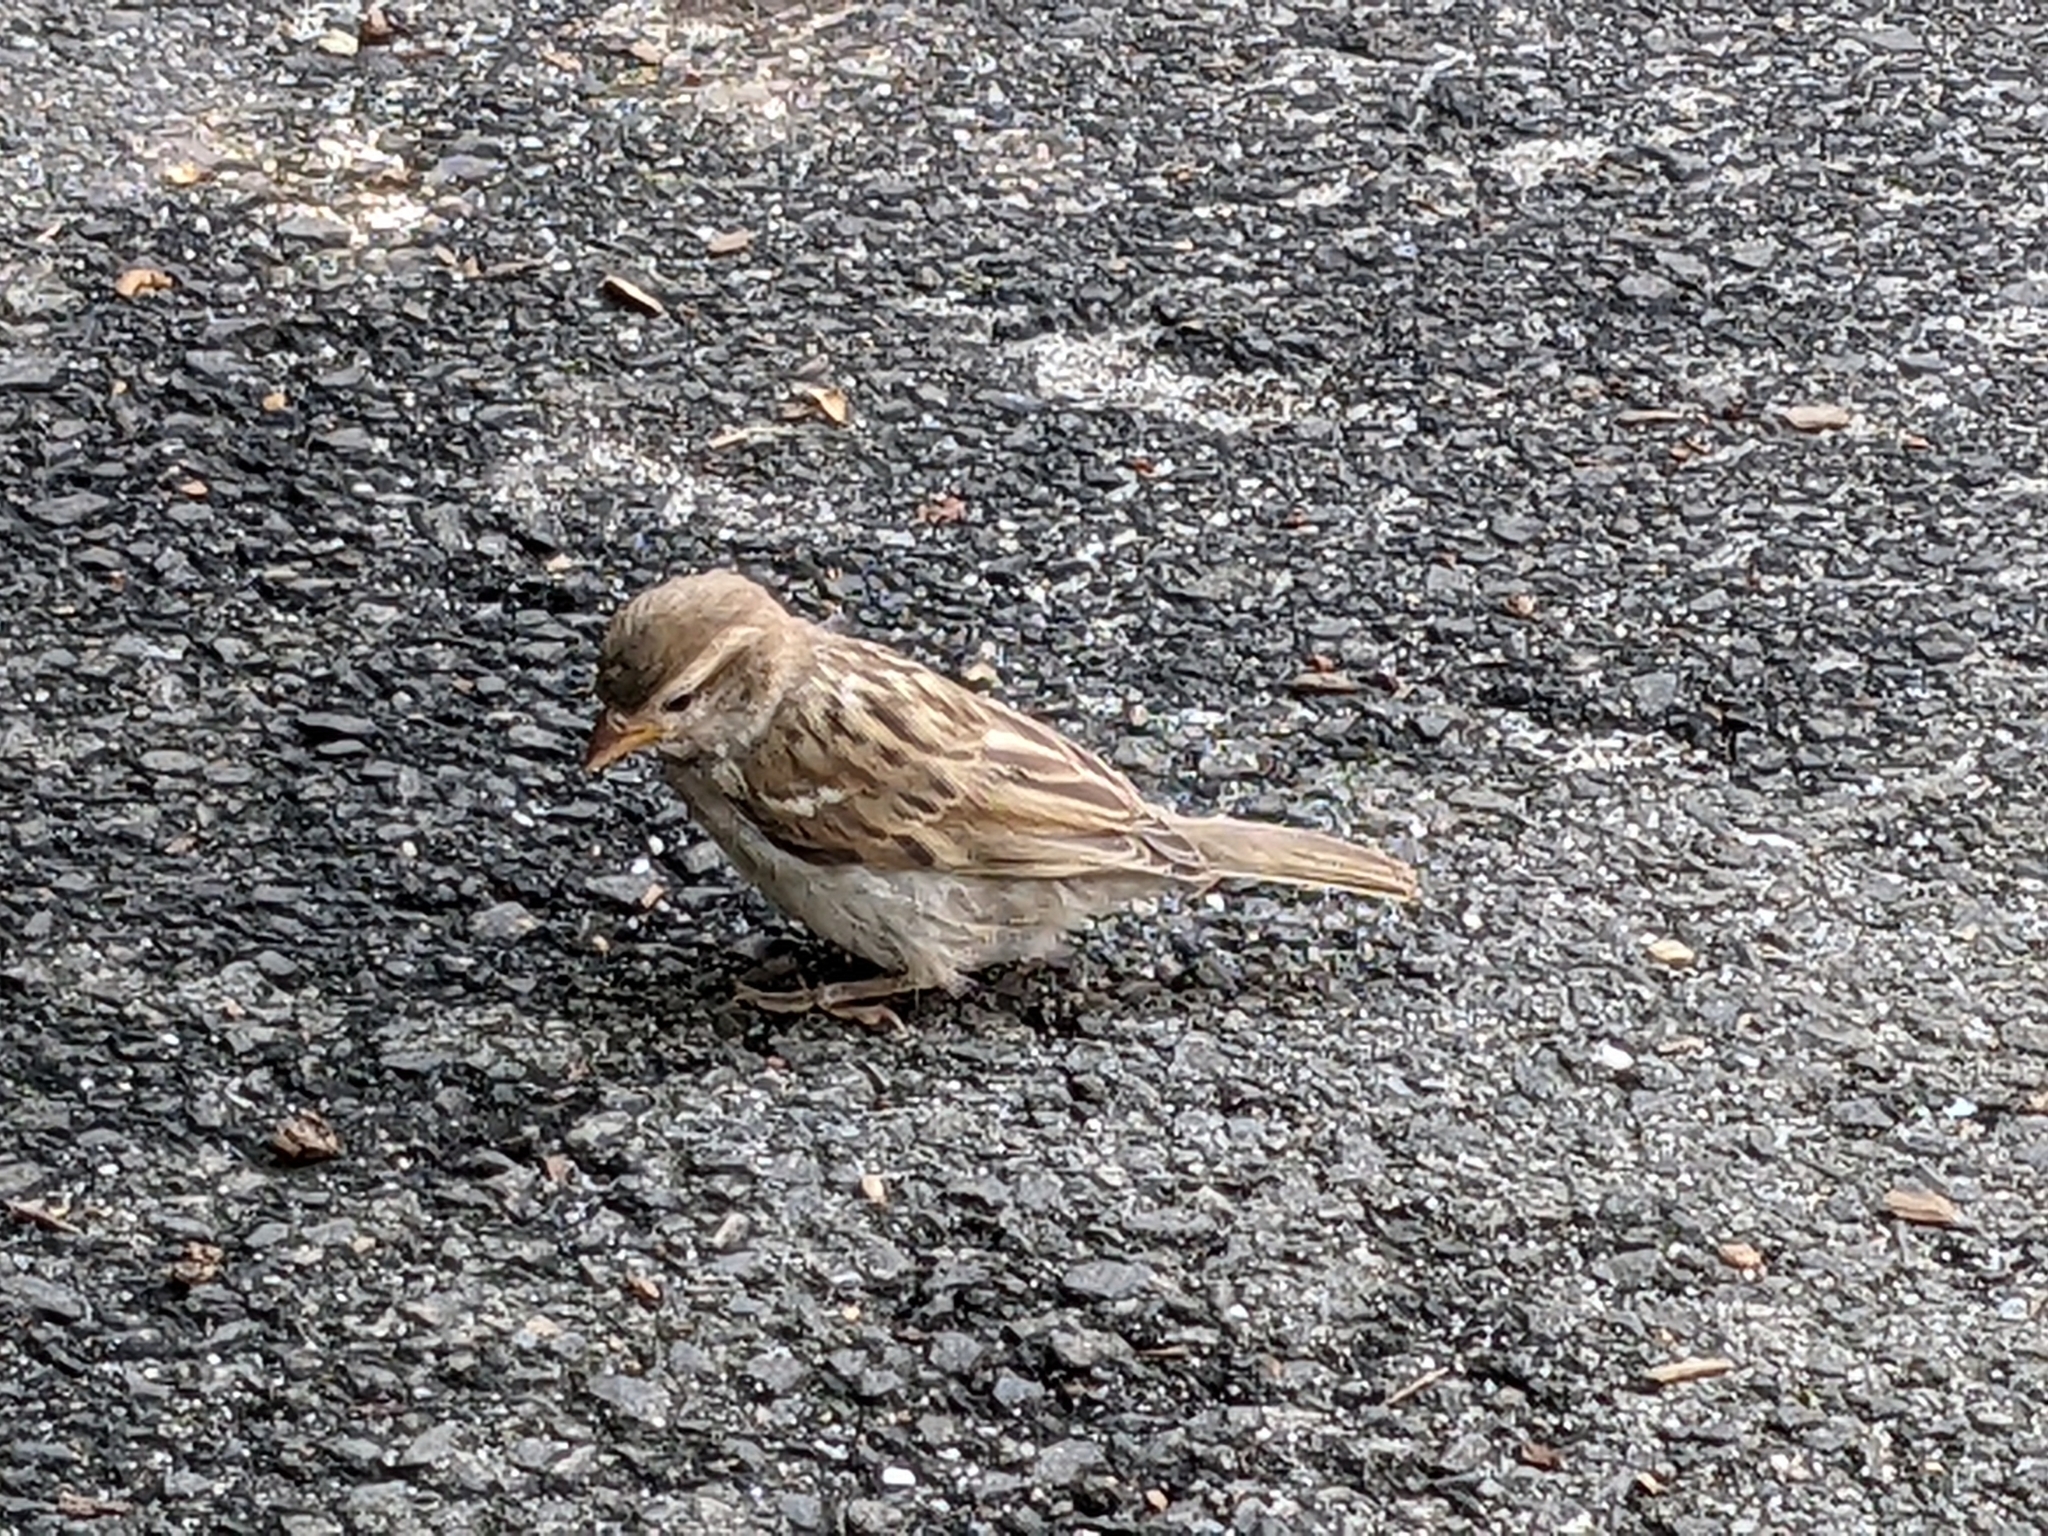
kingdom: Animalia
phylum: Chordata
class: Aves
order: Passeriformes
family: Passeridae
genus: Passer
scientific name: Passer domesticus
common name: House sparrow
